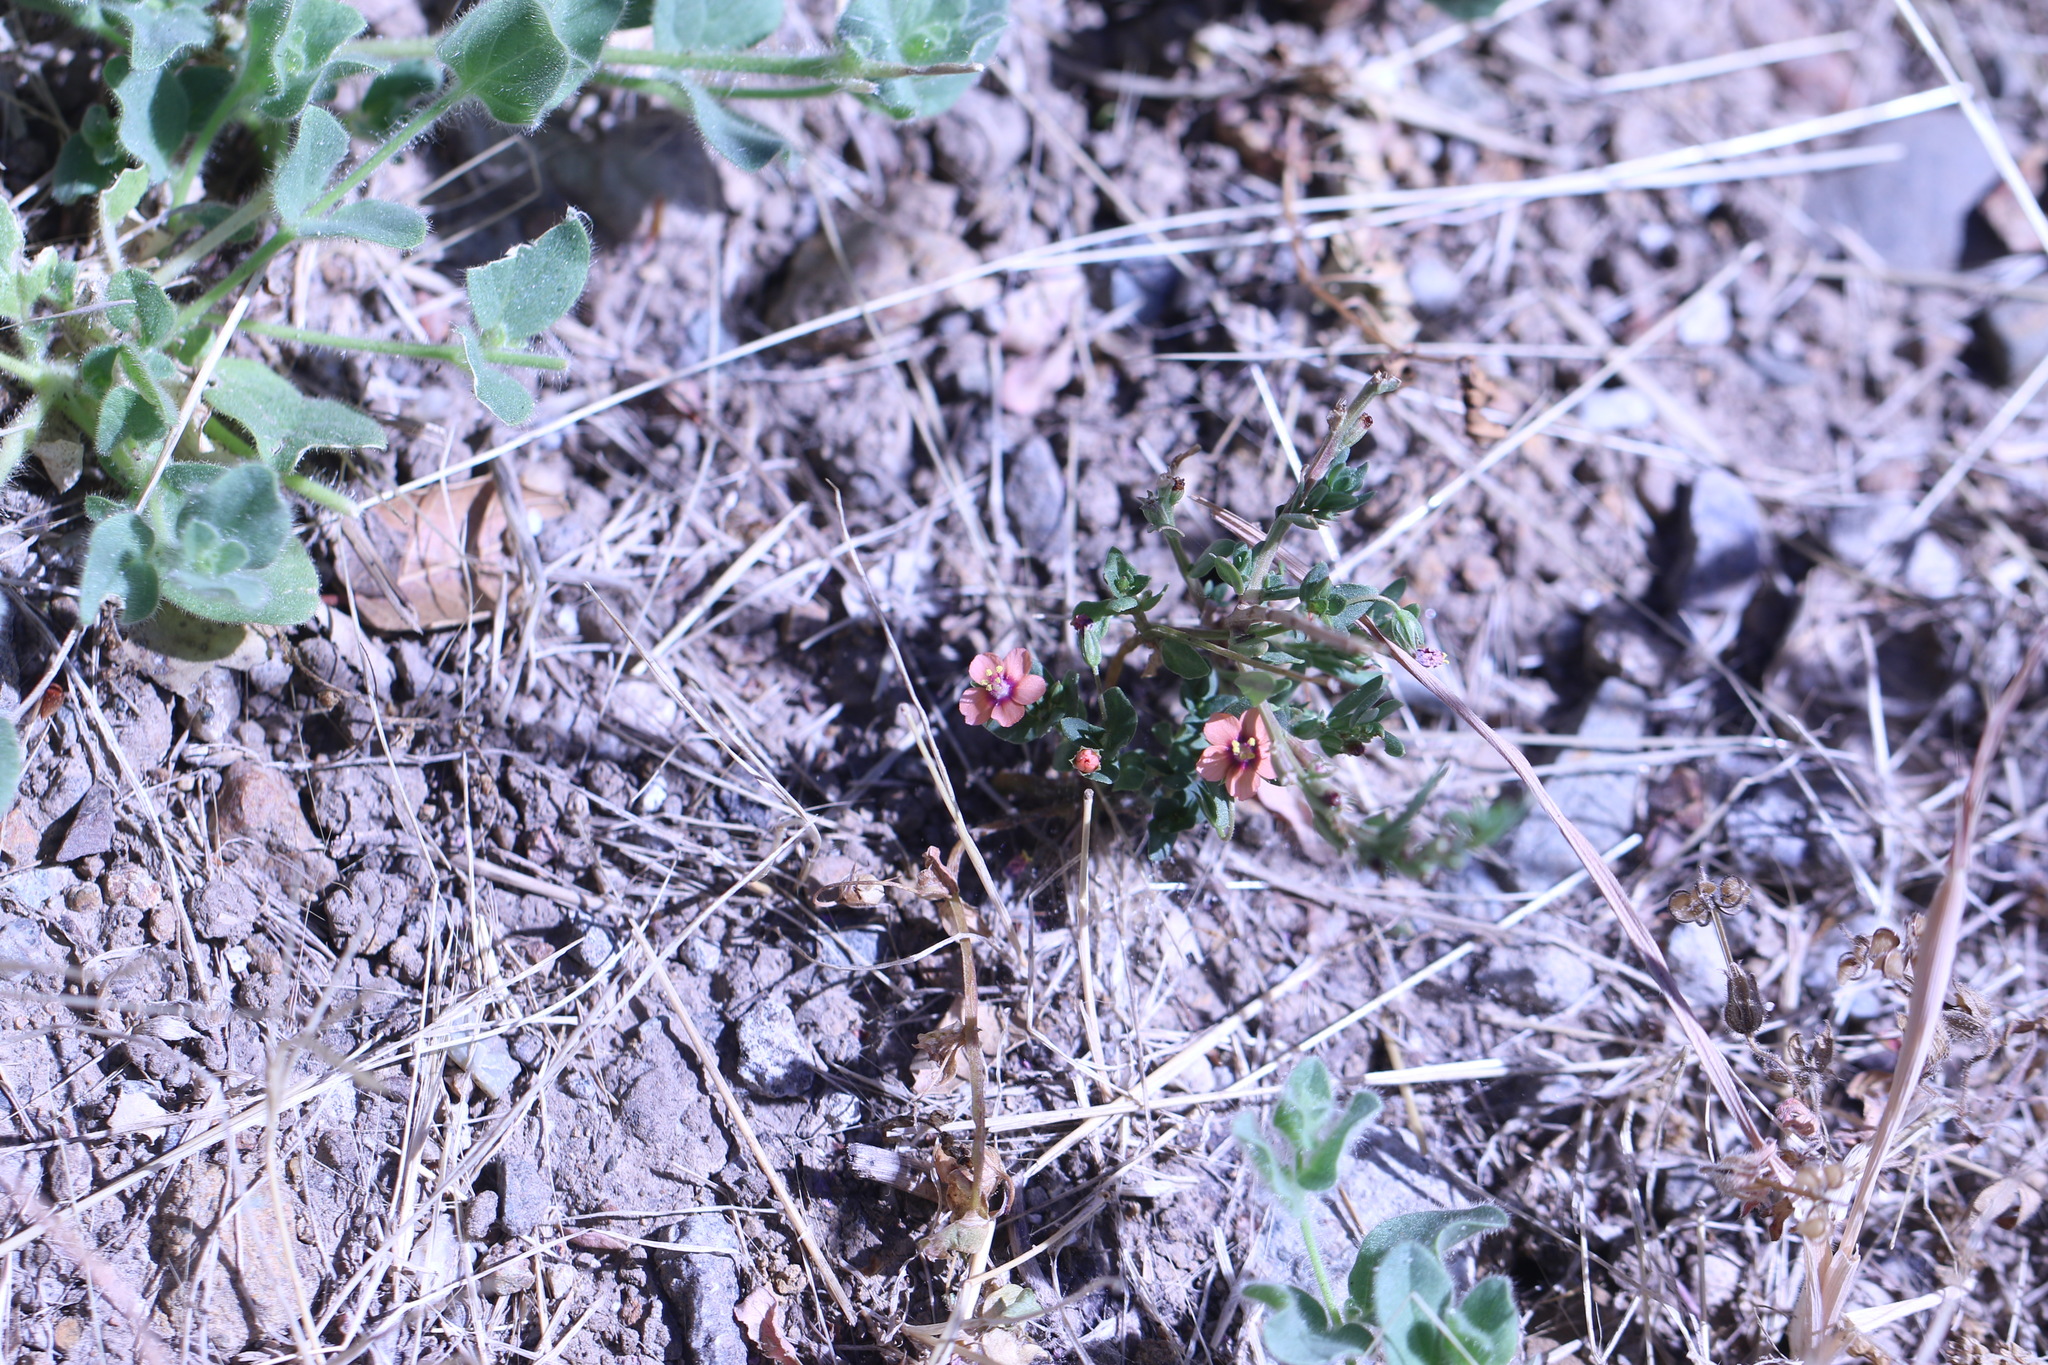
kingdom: Plantae
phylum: Tracheophyta
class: Magnoliopsida
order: Ericales
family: Primulaceae
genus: Lysimachia
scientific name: Lysimachia arvensis
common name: Scarlet pimpernel
